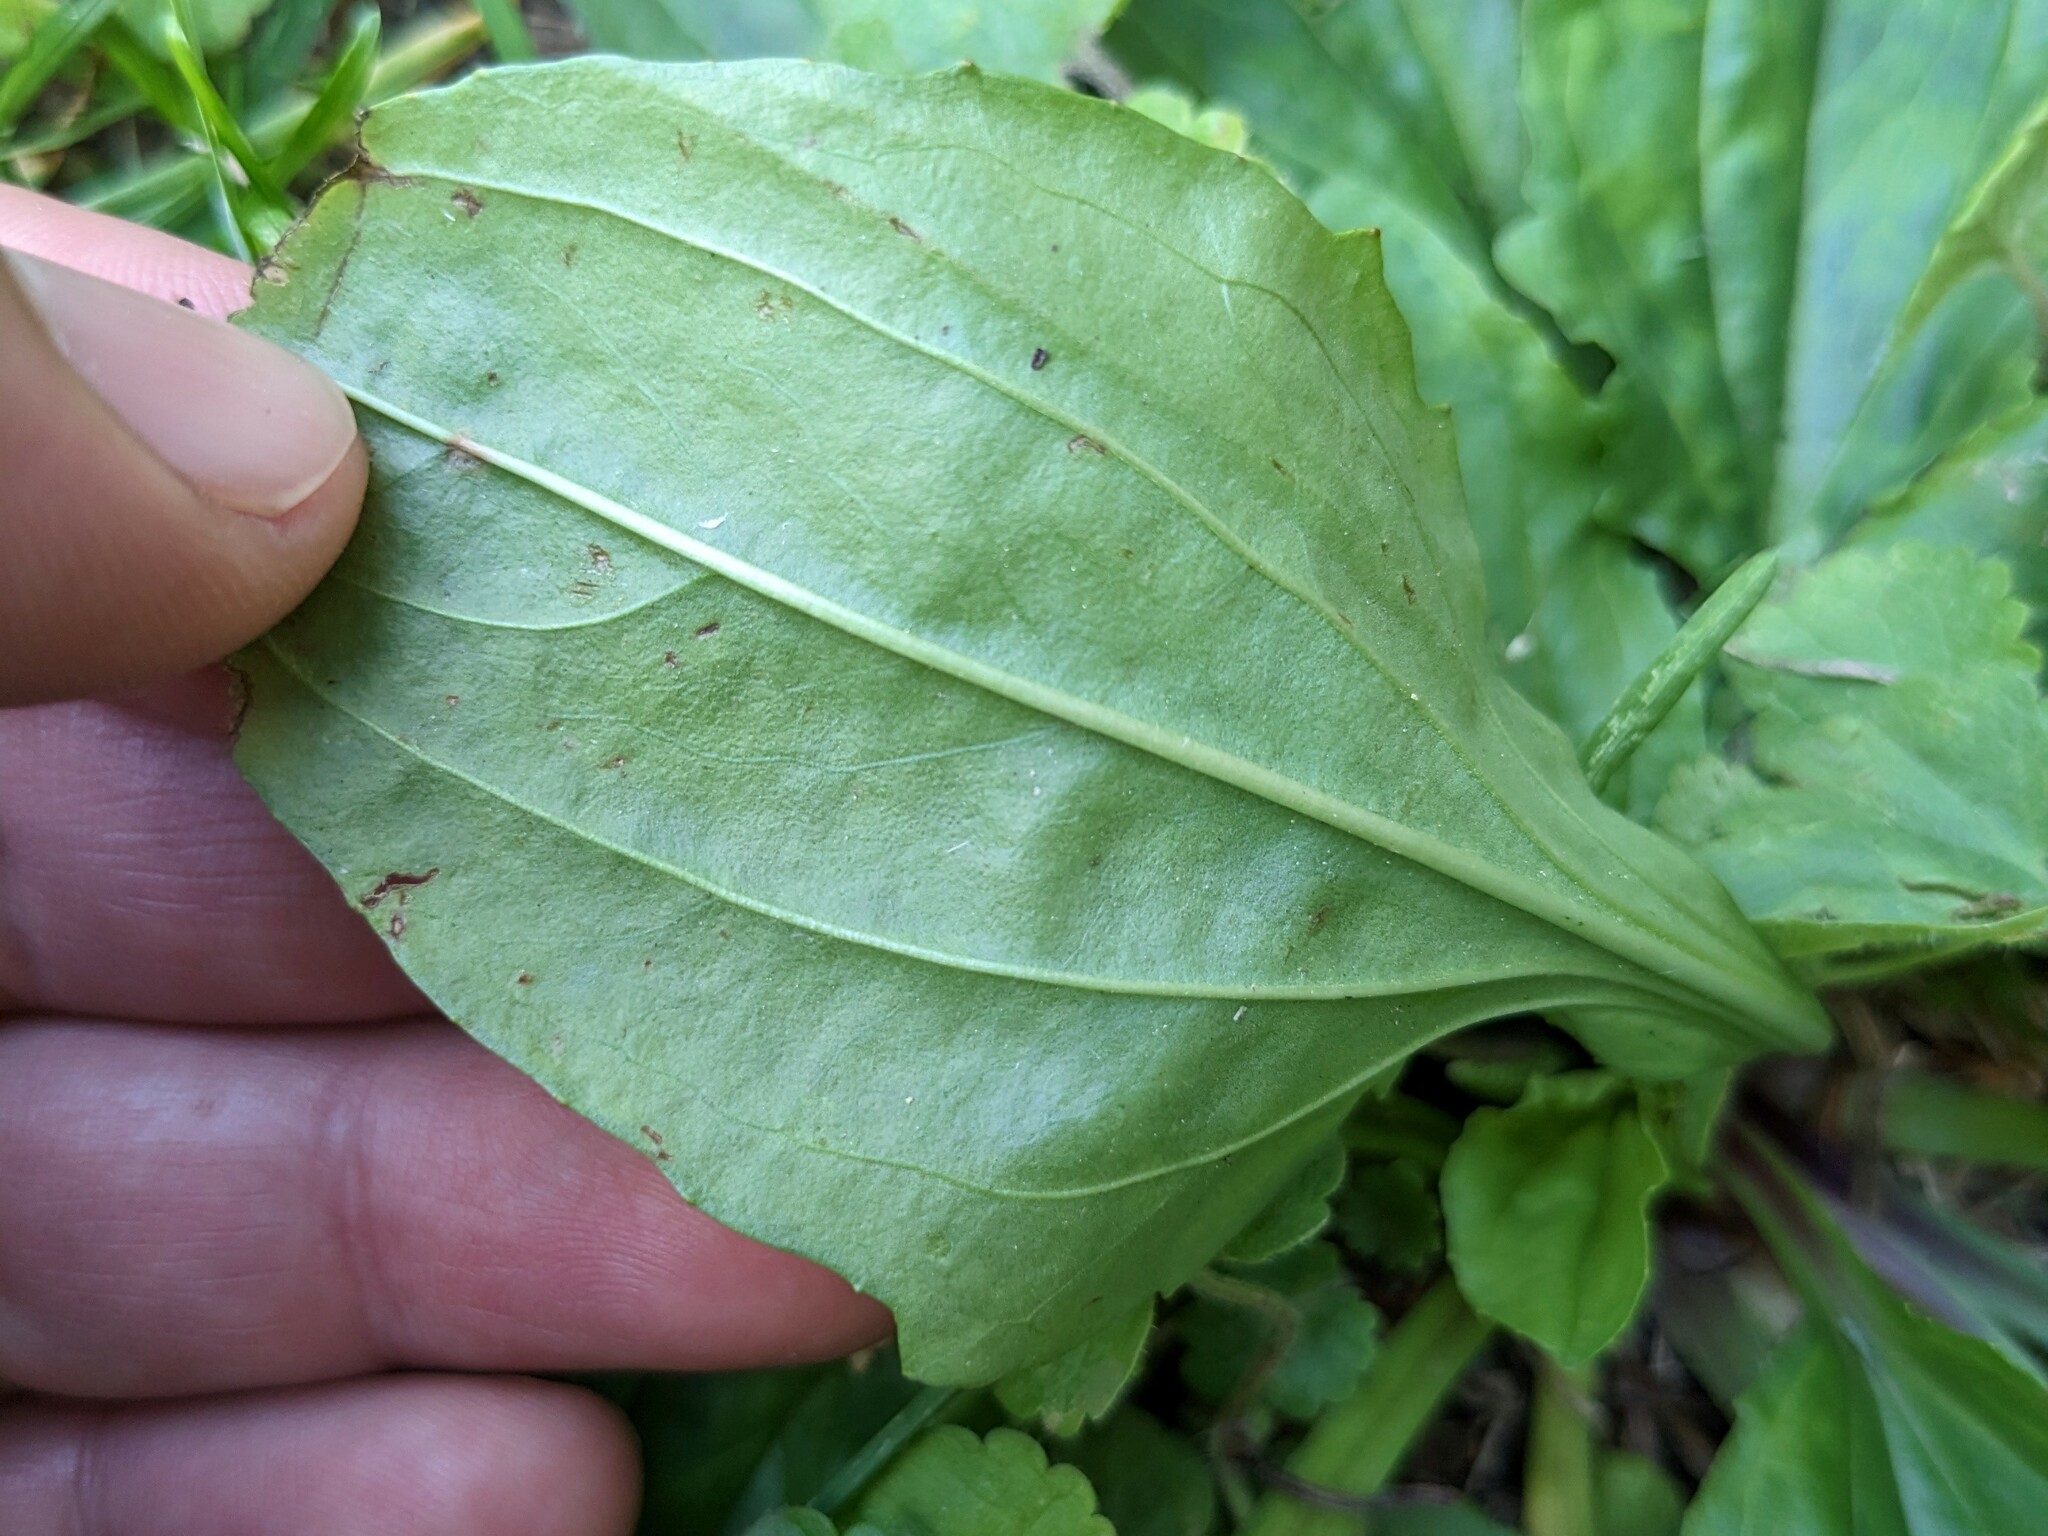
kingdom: Plantae
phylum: Tracheophyta
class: Magnoliopsida
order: Lamiales
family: Plantaginaceae
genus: Plantago
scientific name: Plantago rugelii
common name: American plantain
